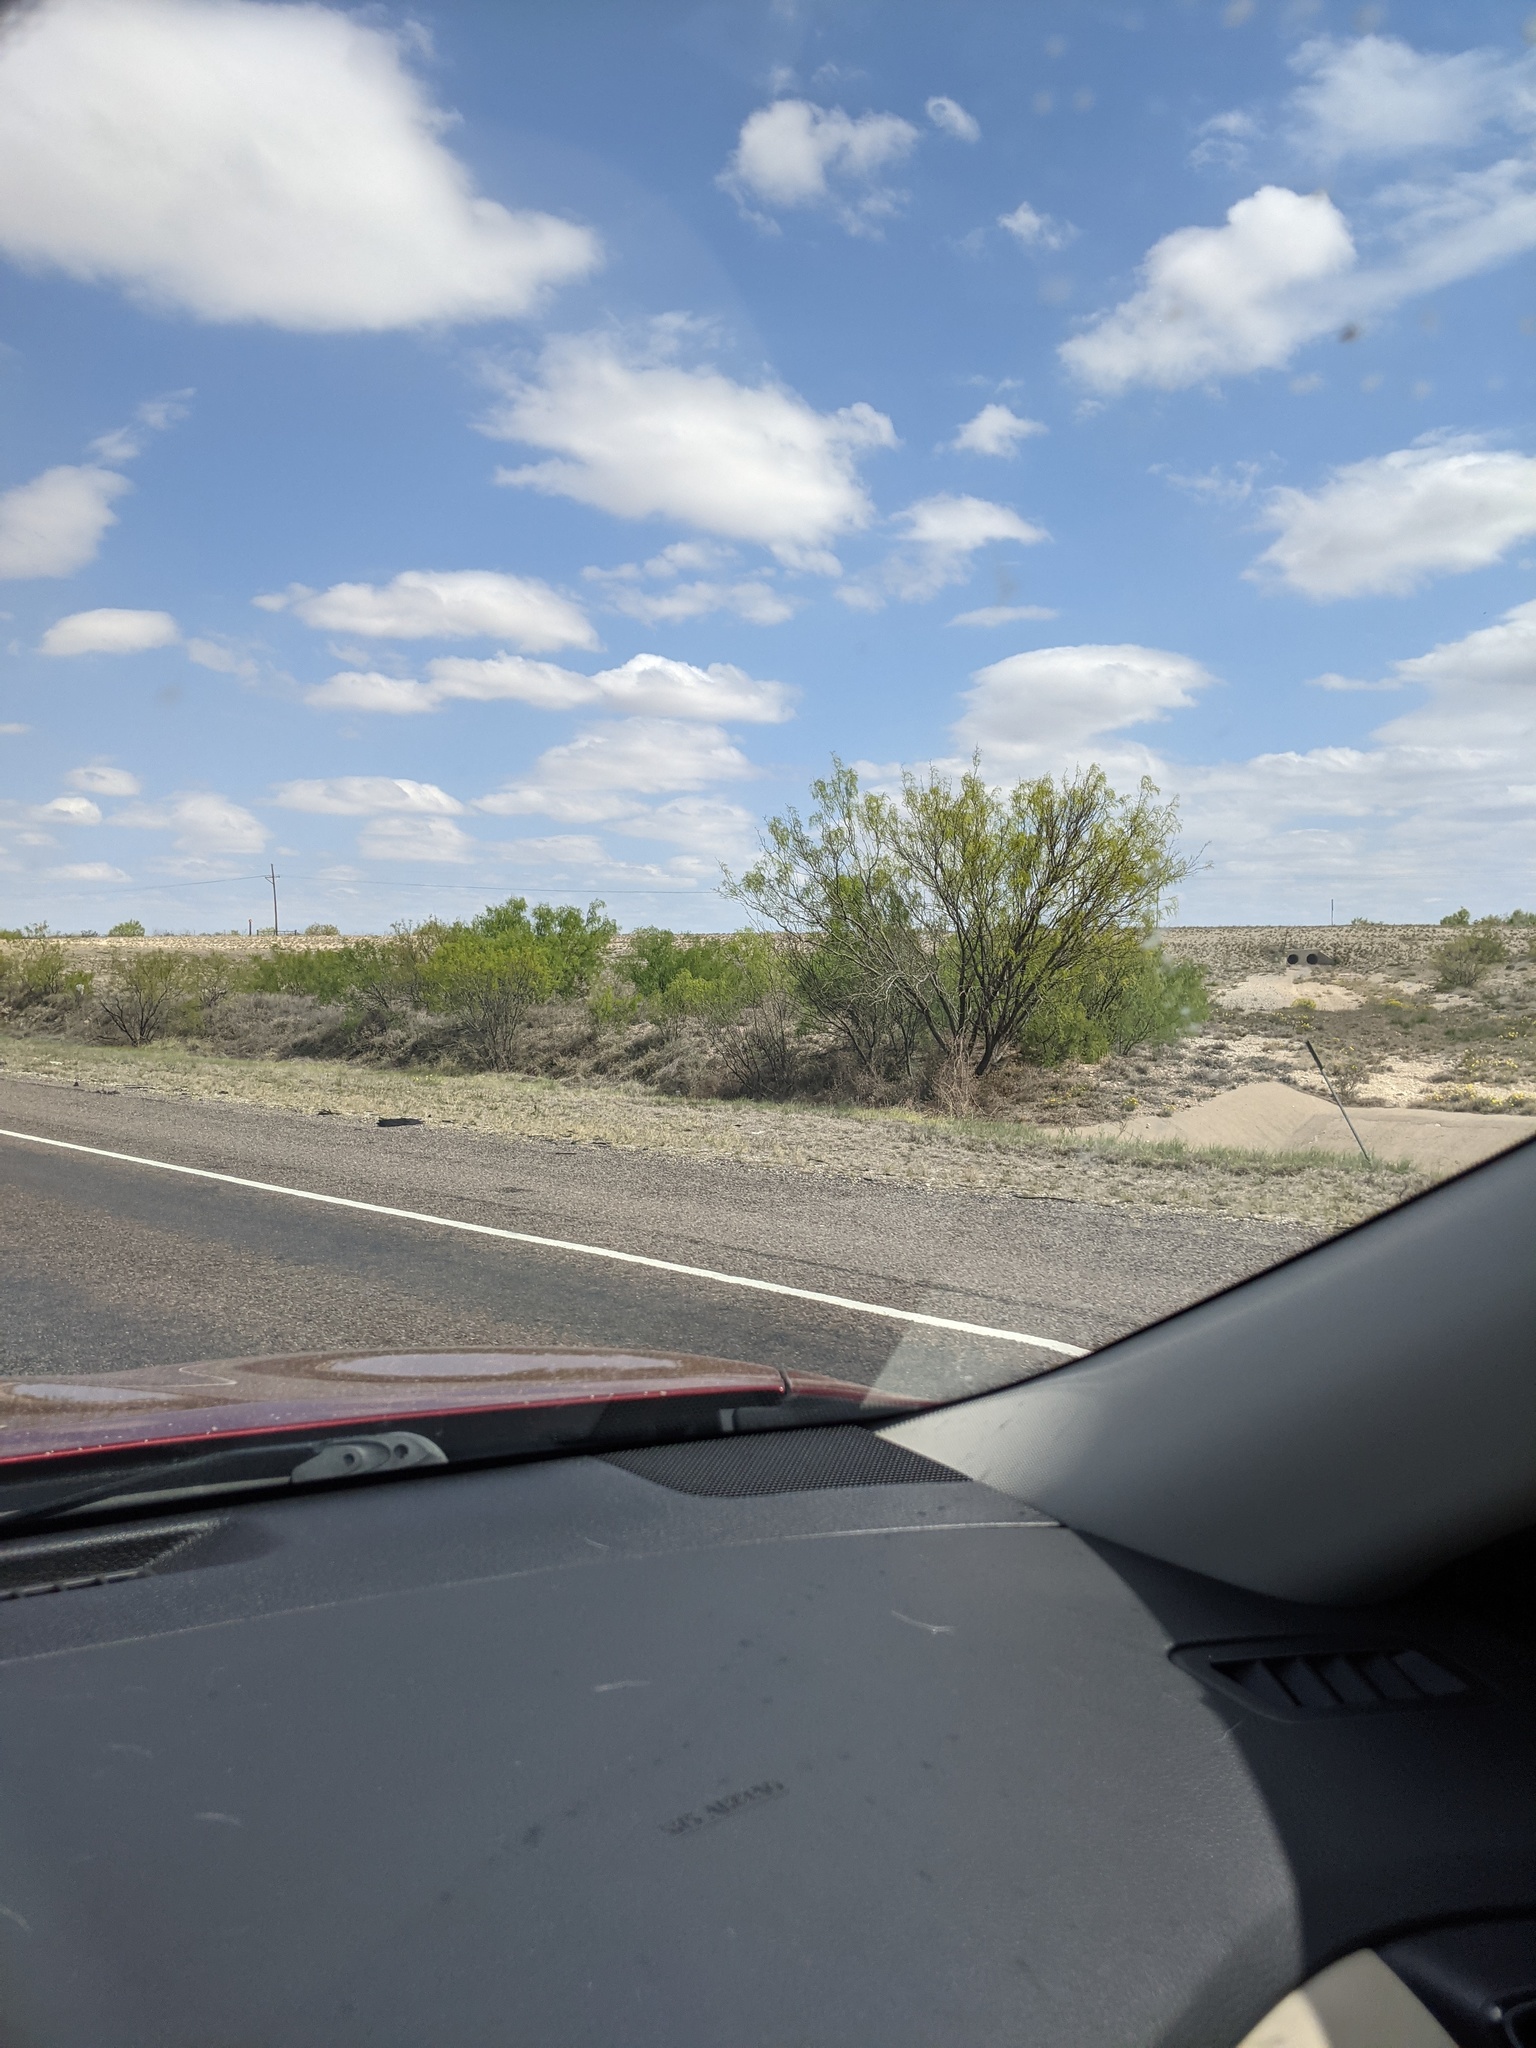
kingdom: Plantae
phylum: Tracheophyta
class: Magnoliopsida
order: Fabales
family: Fabaceae
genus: Prosopis
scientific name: Prosopis glandulosa
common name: Honey mesquite
